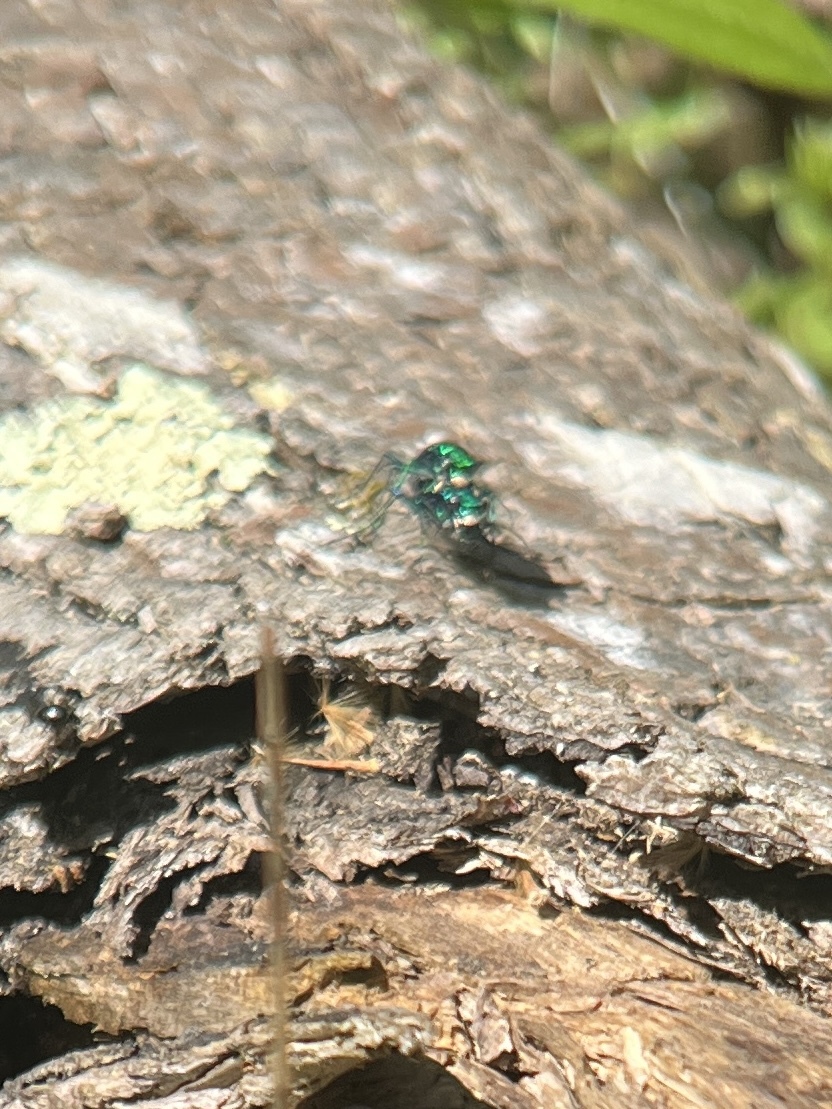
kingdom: Animalia
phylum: Arthropoda
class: Insecta
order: Coleoptera
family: Carabidae
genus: Cicindela
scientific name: Cicindela sexguttata
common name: Six-spotted tiger beetle
